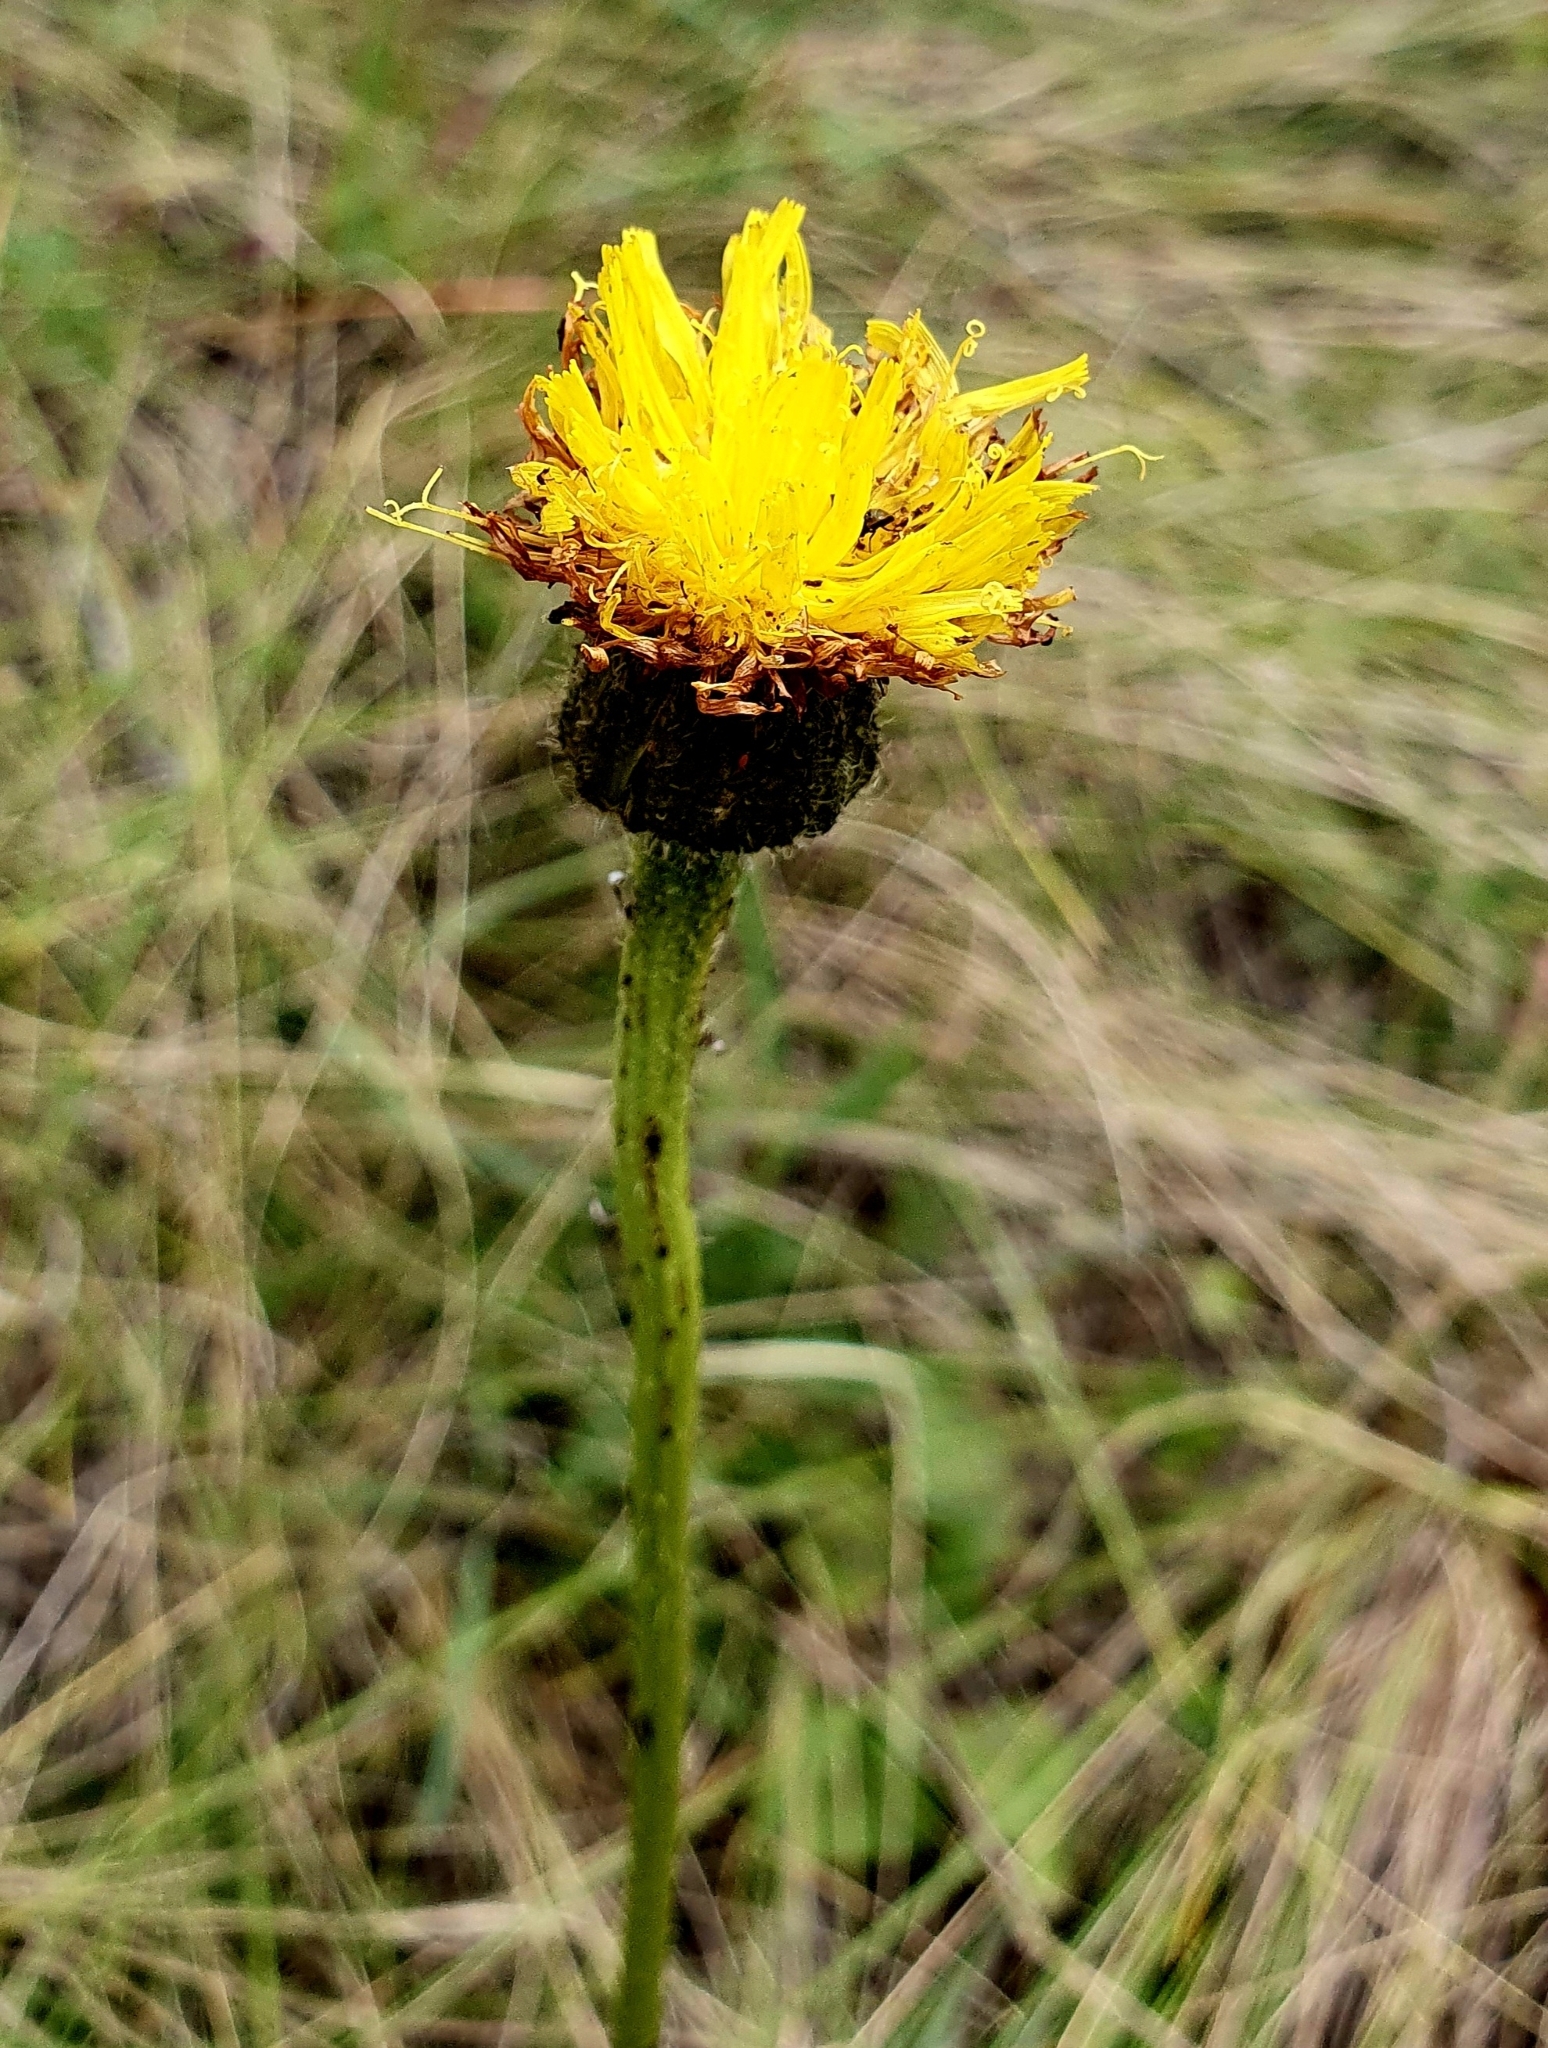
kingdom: Plantae
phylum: Tracheophyta
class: Magnoliopsida
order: Asterales
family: Asteraceae
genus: Trommsdorffia
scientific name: Trommsdorffia maculata
